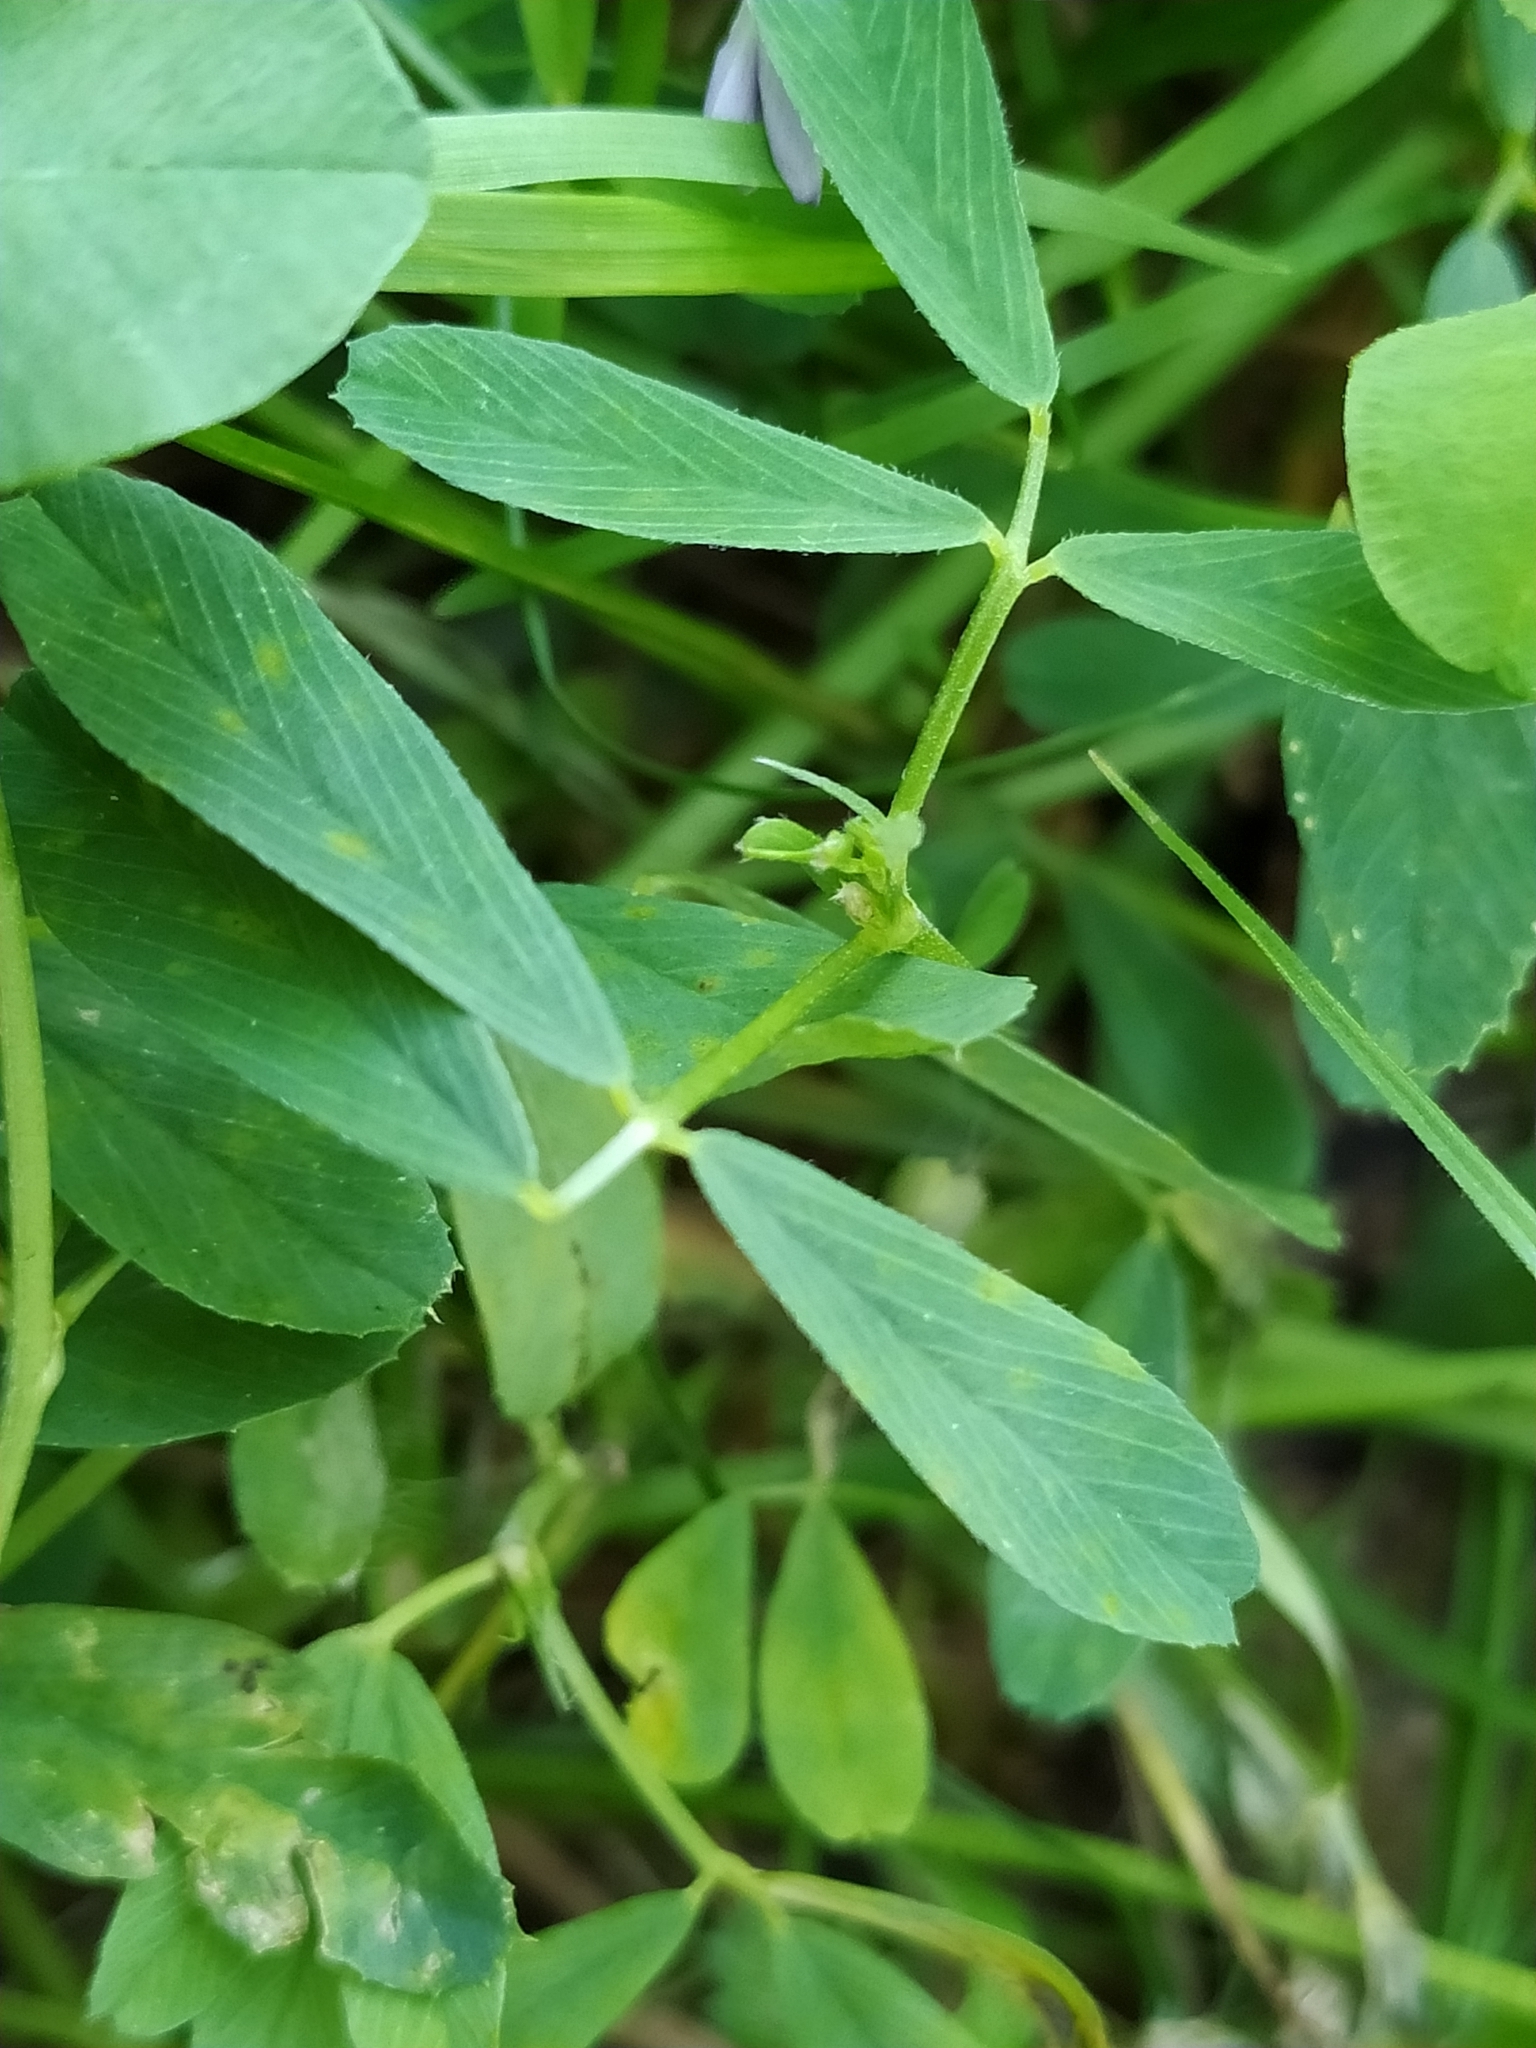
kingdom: Plantae
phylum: Tracheophyta
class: Magnoliopsida
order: Fabales
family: Fabaceae
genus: Medicago
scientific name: Medicago sativa
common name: Alfalfa
